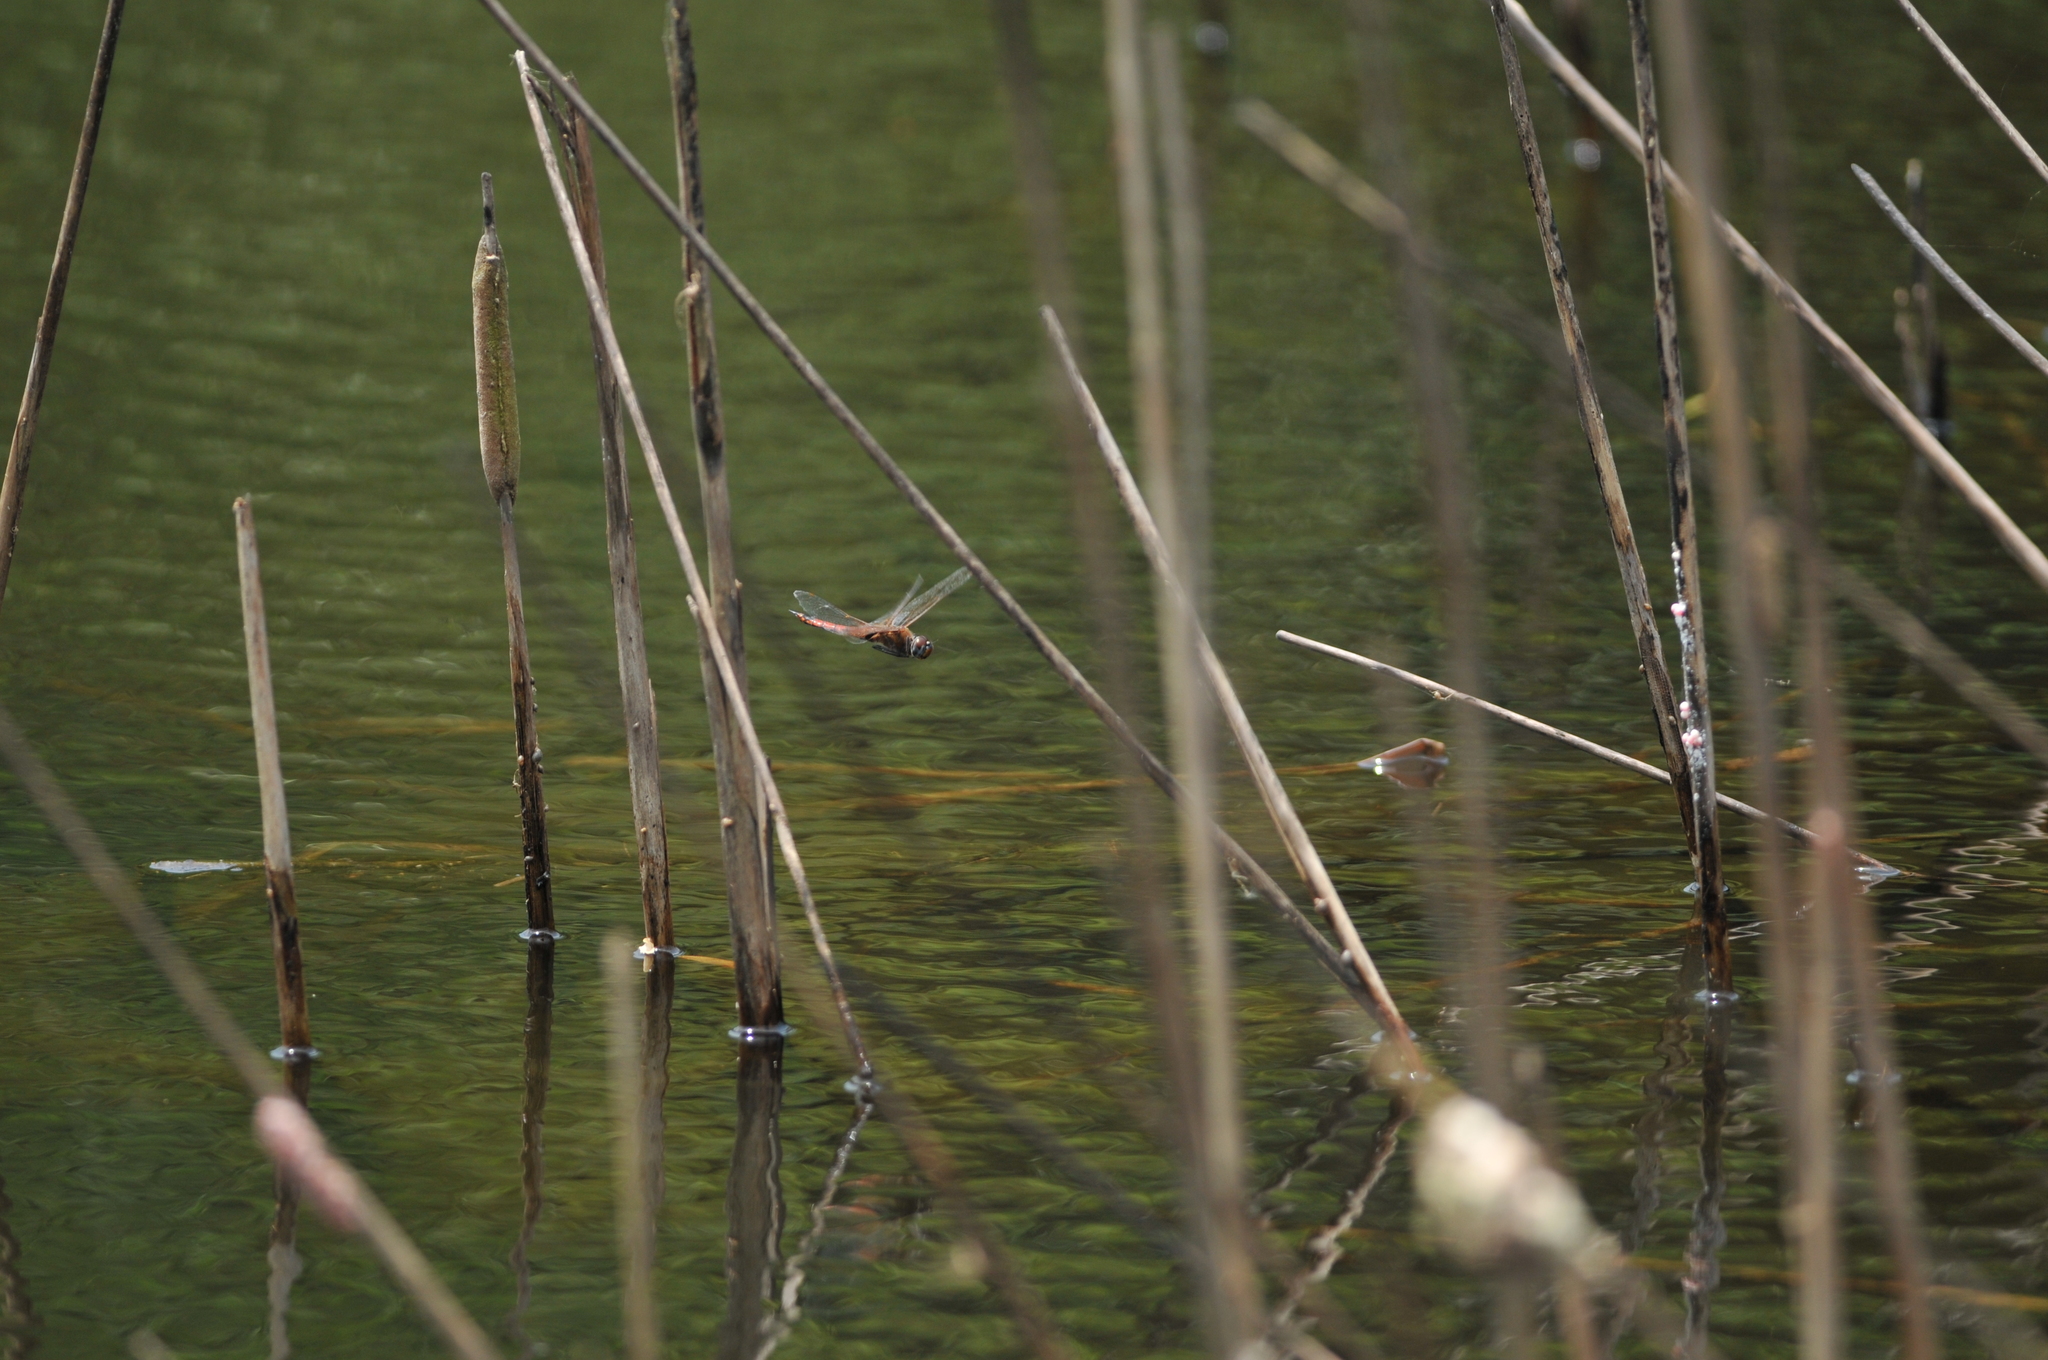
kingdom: Animalia
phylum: Arthropoda
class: Insecta
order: Odonata
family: Libellulidae
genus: Tramea
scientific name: Tramea transmarina
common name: Red glider dragonfly
